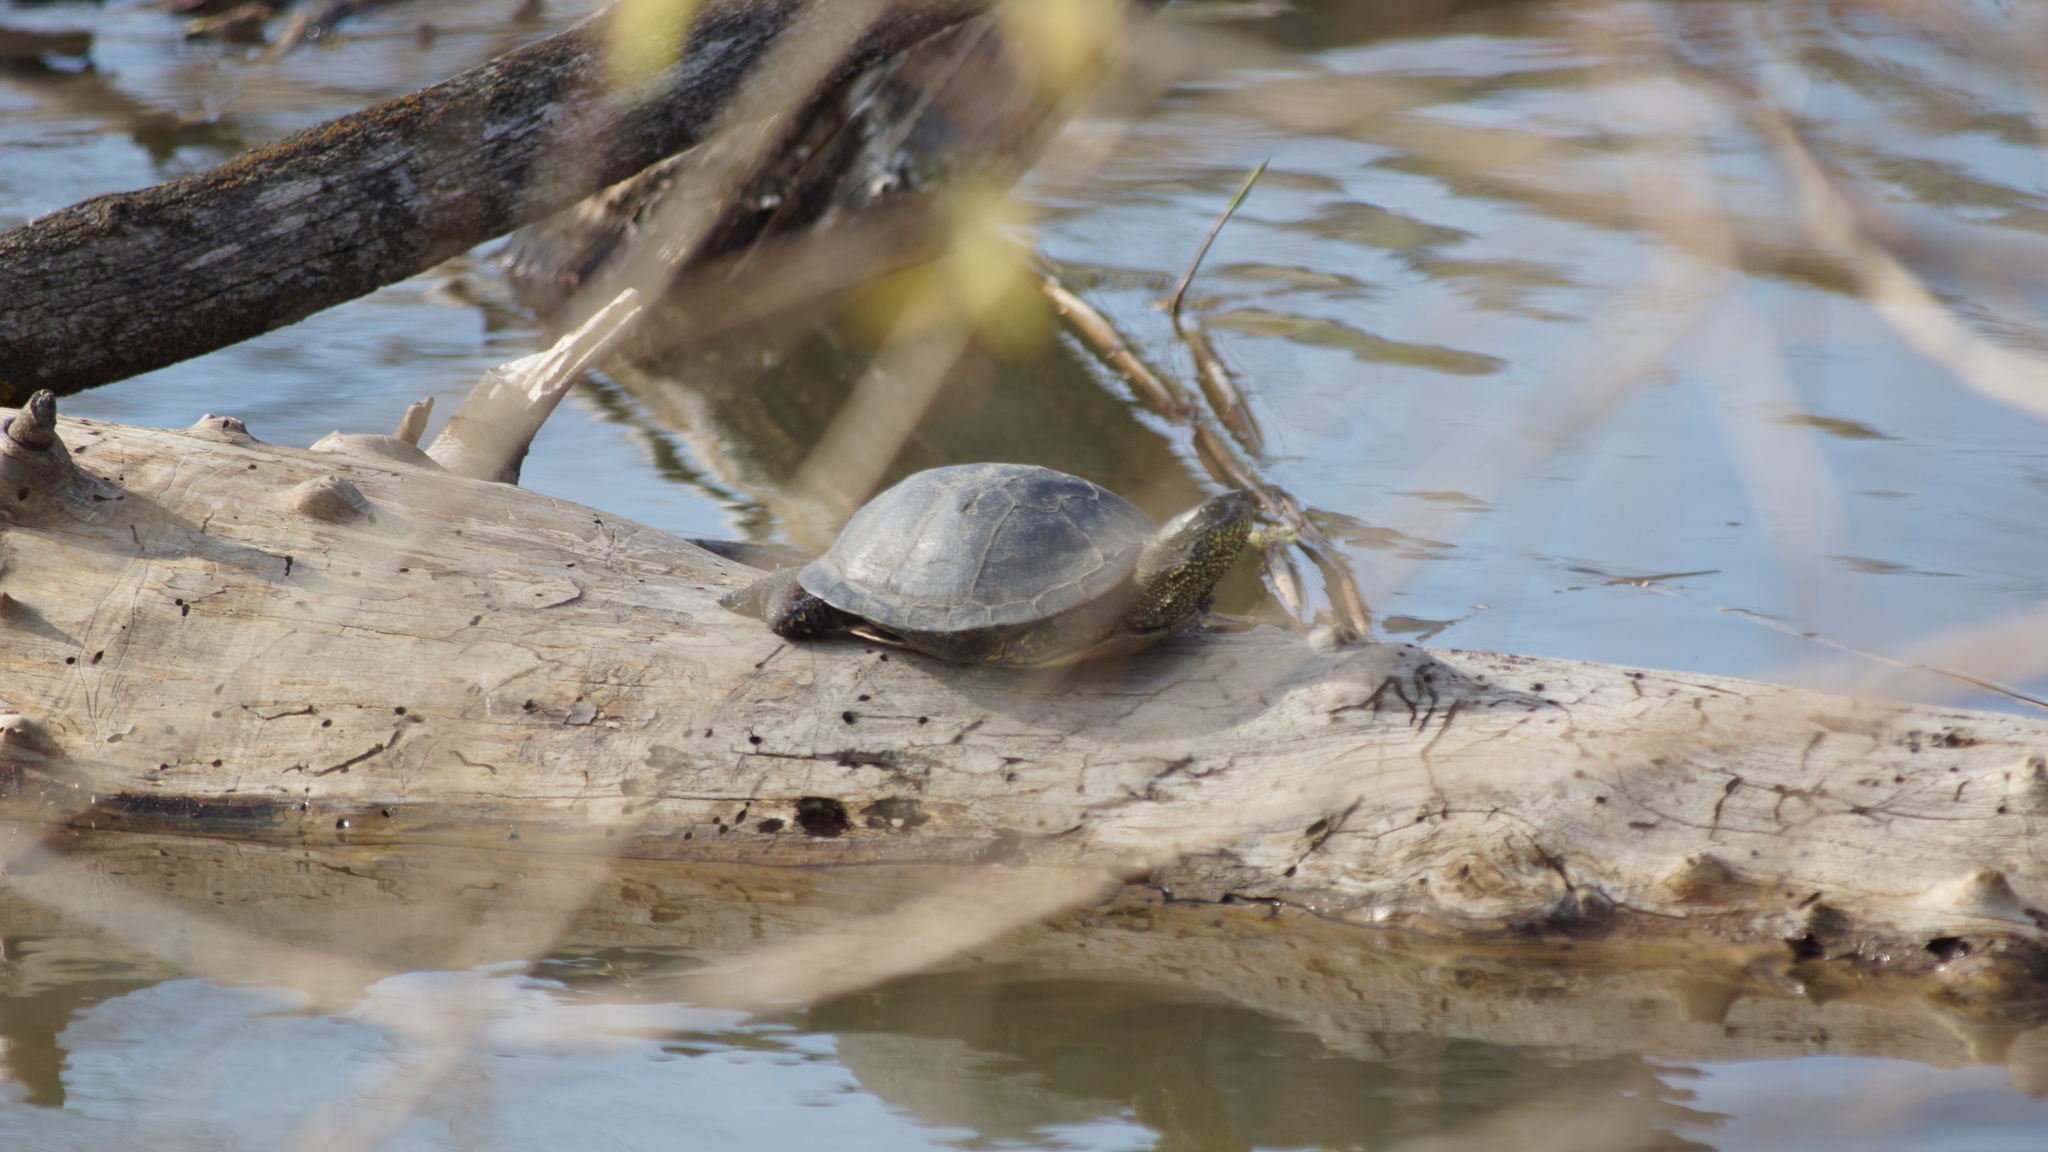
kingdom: Animalia
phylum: Chordata
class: Testudines
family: Emydidae
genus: Emys
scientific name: Emys orbicularis
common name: European pond turtle
